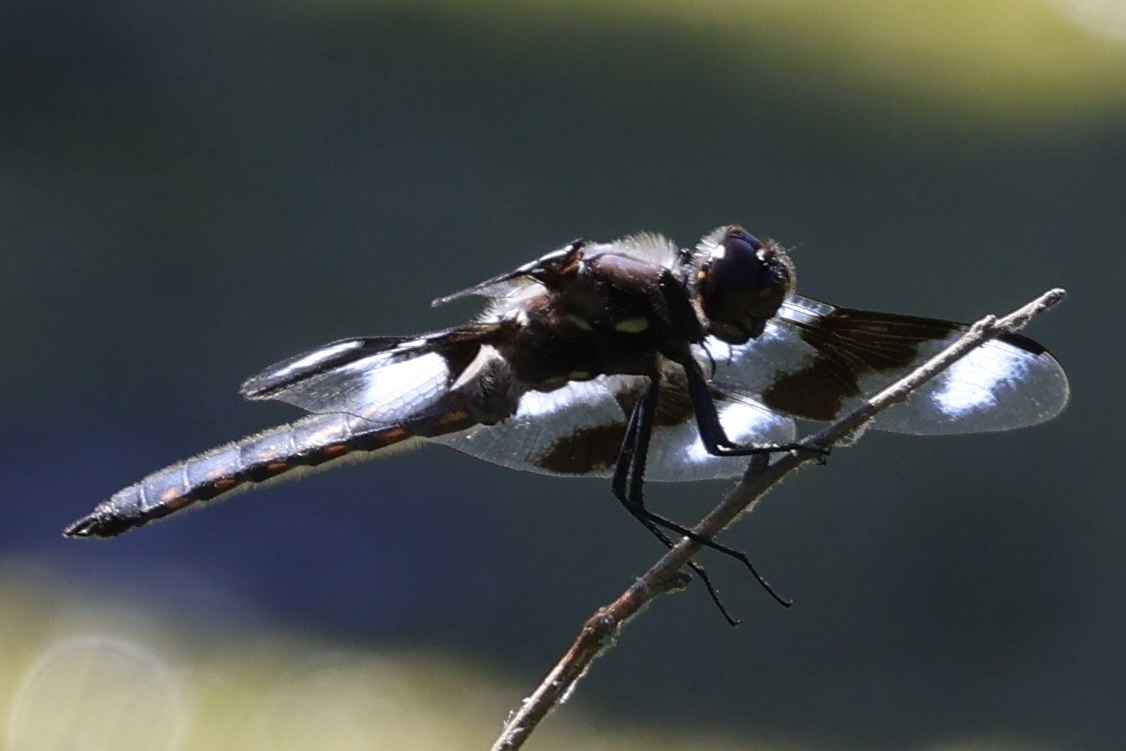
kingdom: Animalia
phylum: Arthropoda
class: Insecta
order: Odonata
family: Libellulidae
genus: Libellula
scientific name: Libellula forensis
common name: Eight-spotted skimmer
